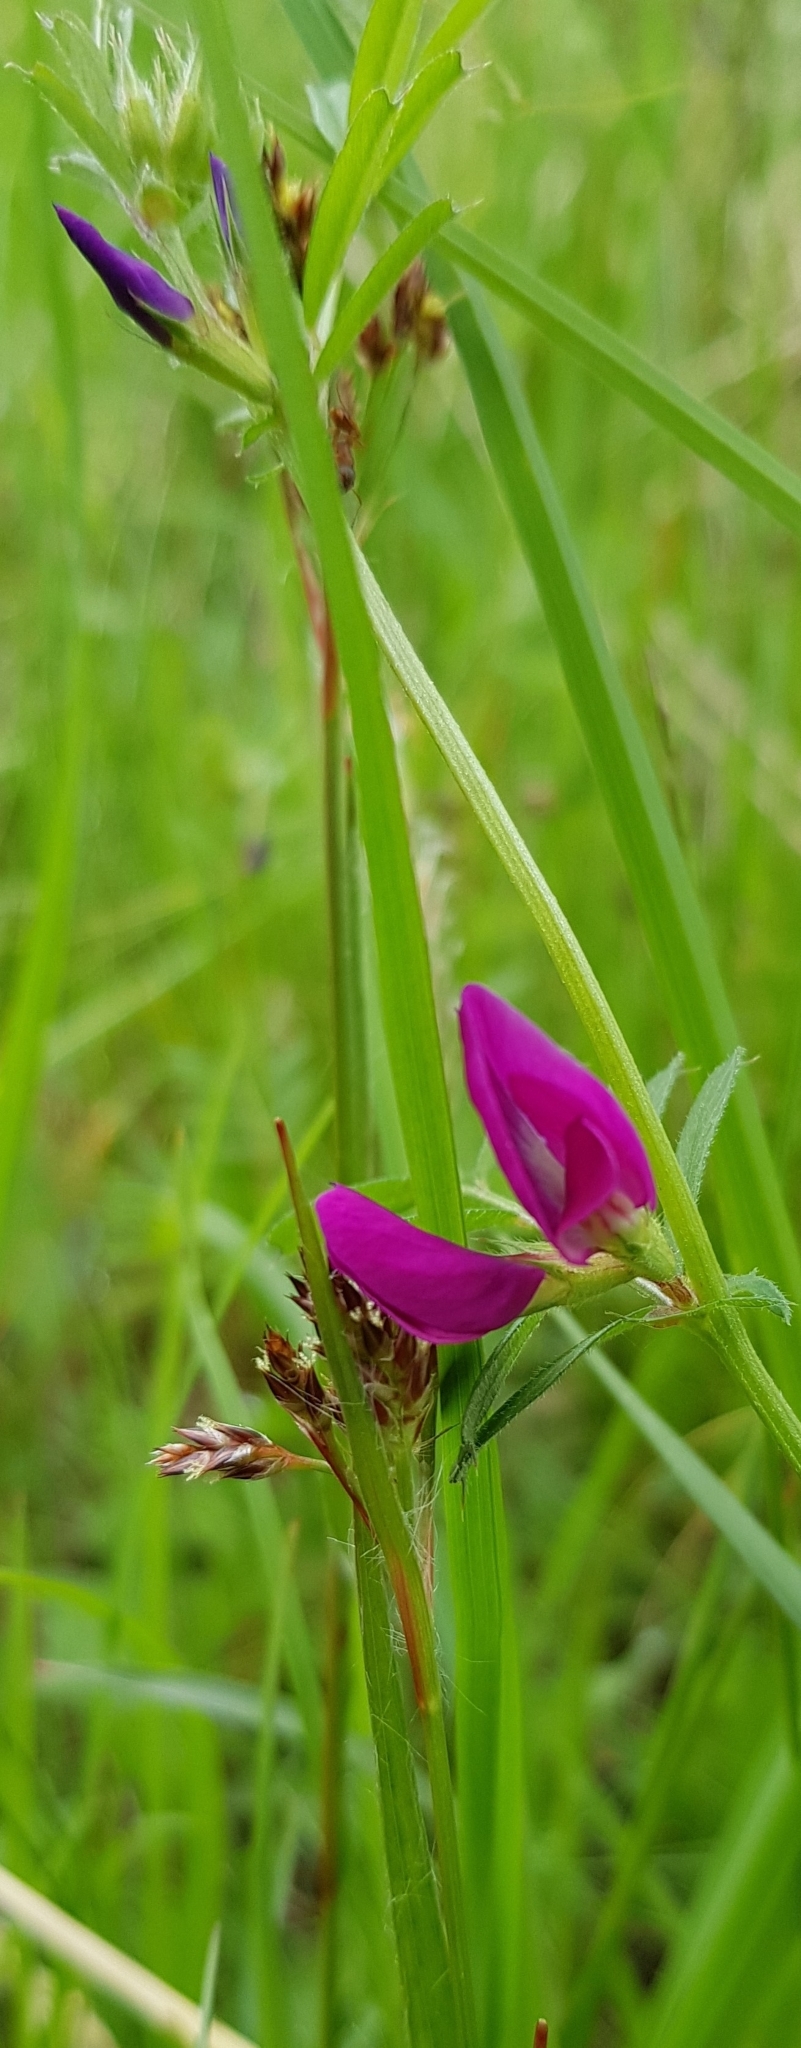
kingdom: Plantae
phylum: Tracheophyta
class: Magnoliopsida
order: Fabales
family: Fabaceae
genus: Vicia
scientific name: Vicia sativa
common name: Garden vetch
